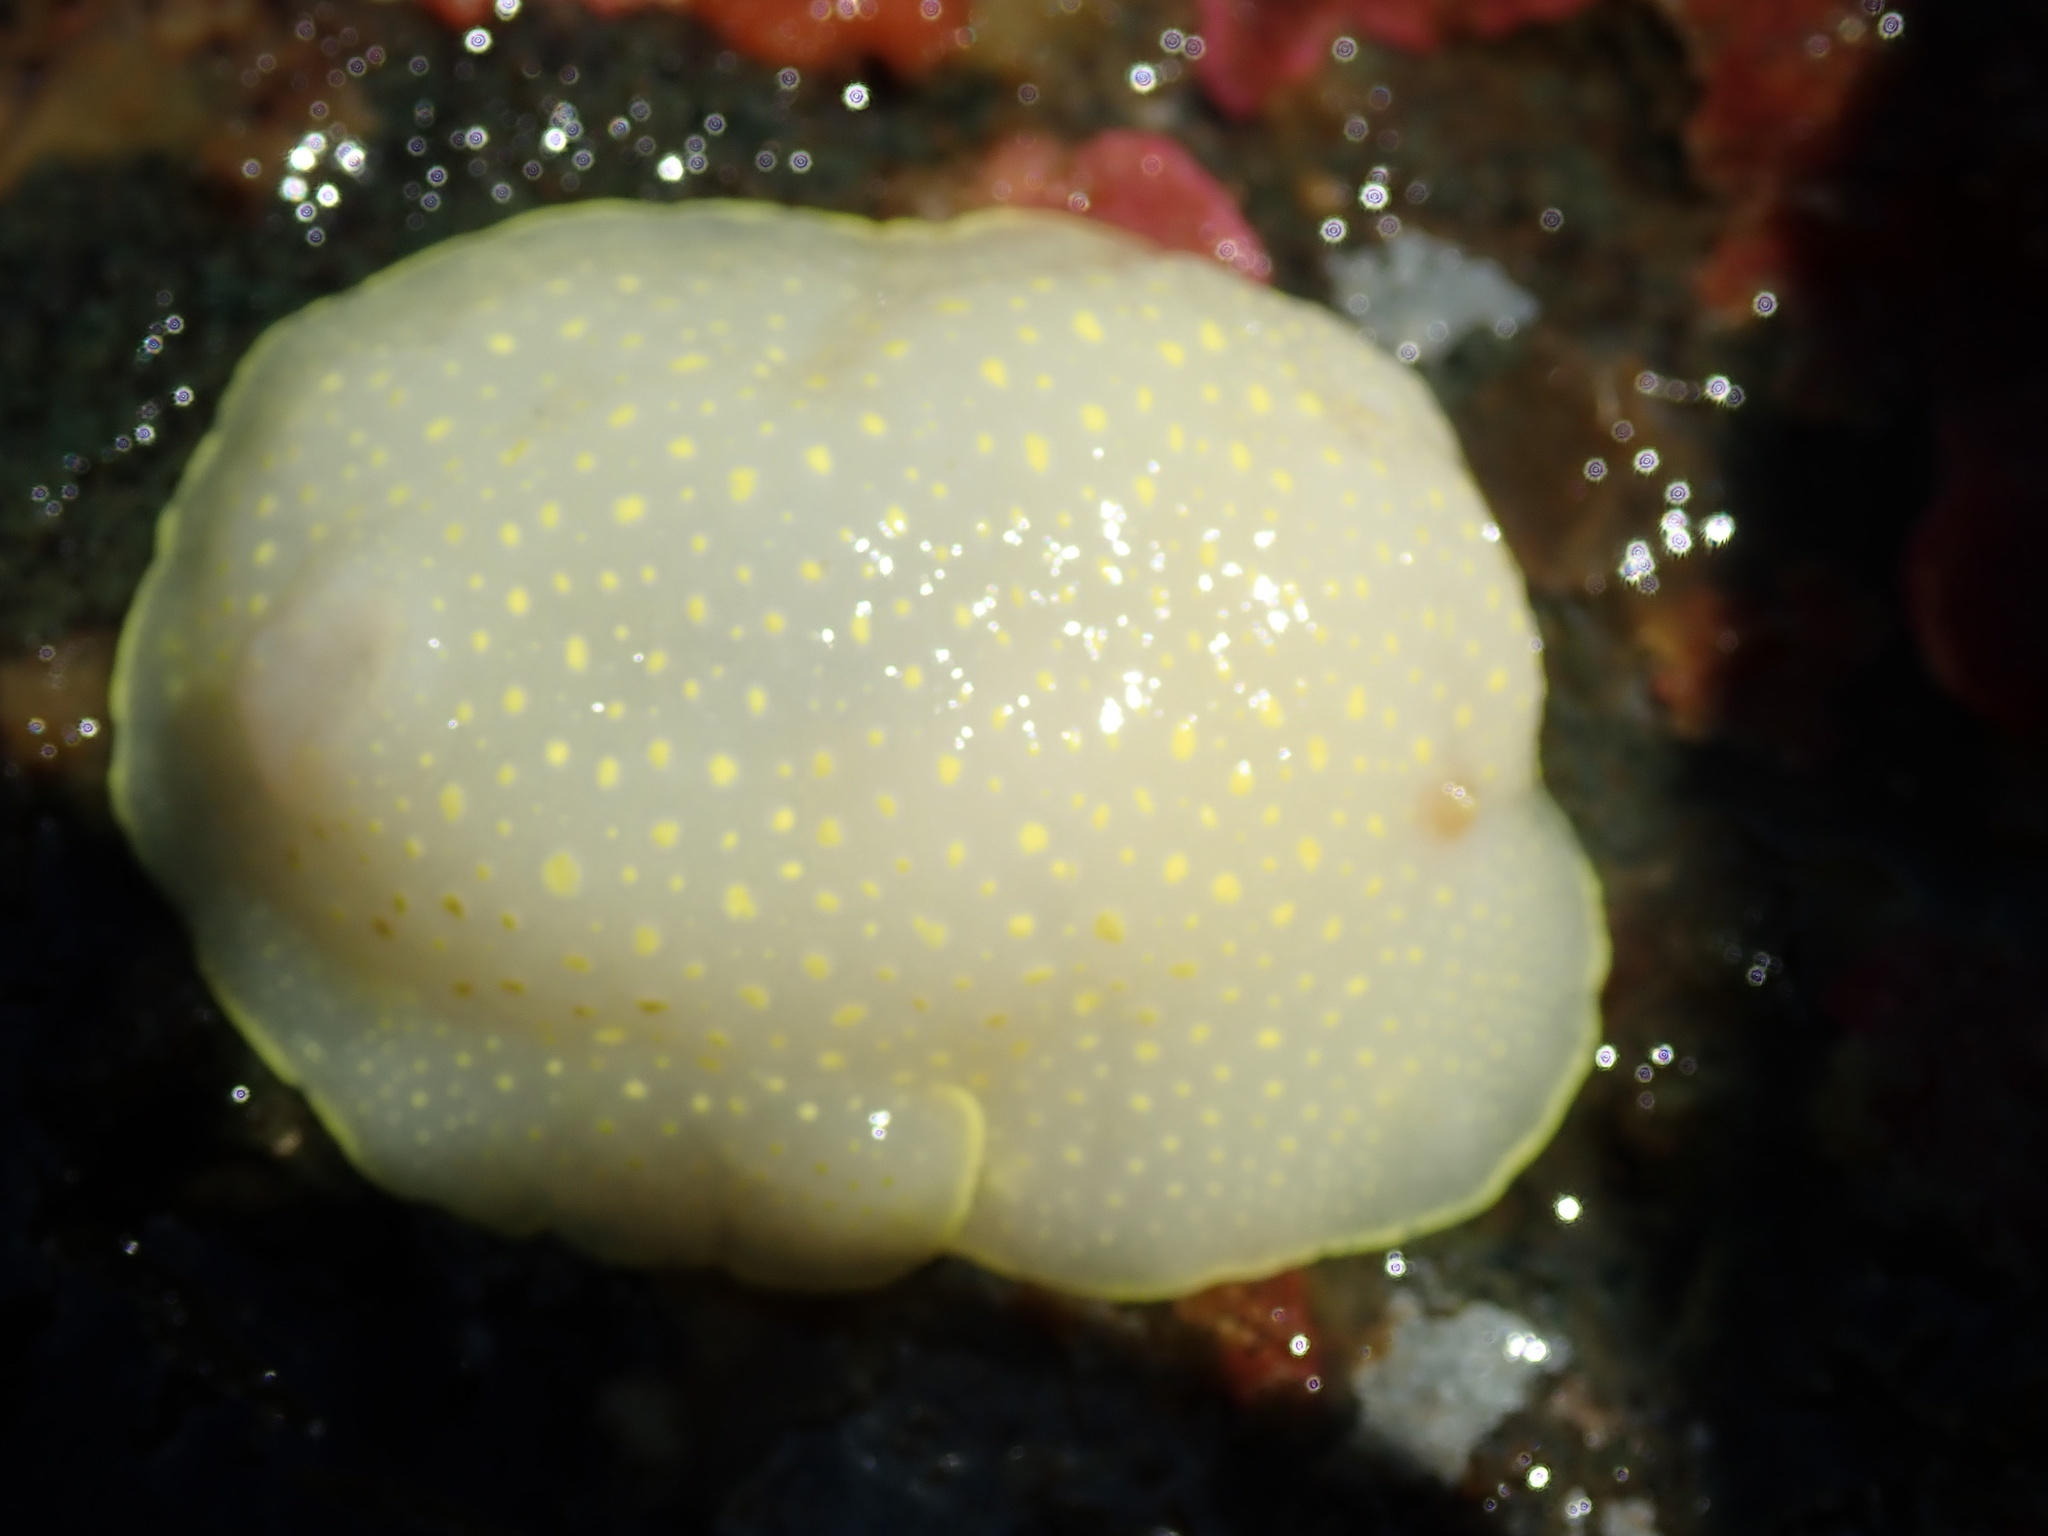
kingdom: Animalia
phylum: Mollusca
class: Gastropoda
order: Nudibranchia
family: Cadlinidae
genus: Cadlina
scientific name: Cadlina luteomarginata
